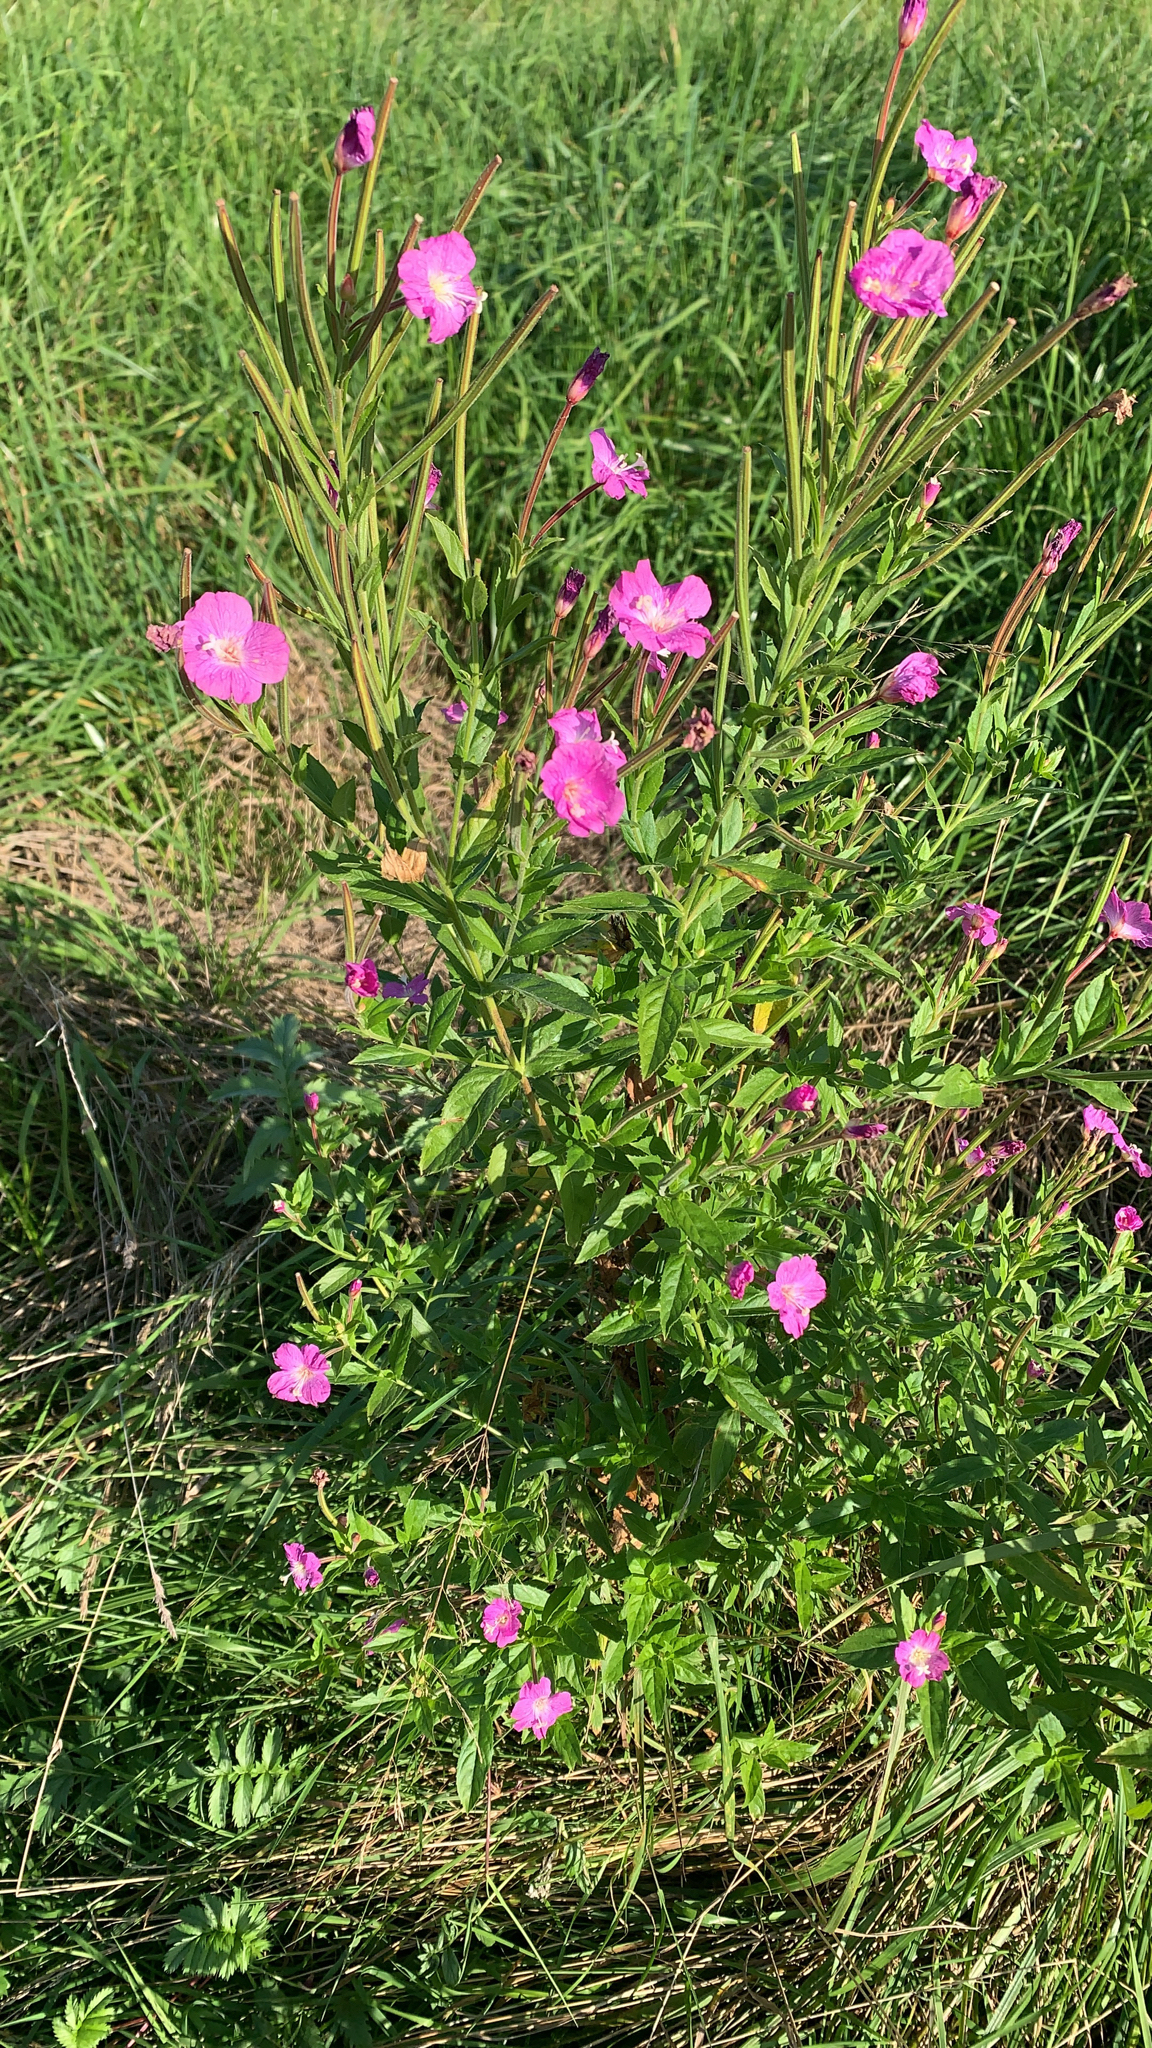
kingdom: Plantae
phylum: Tracheophyta
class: Magnoliopsida
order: Myrtales
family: Onagraceae
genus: Epilobium
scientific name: Epilobium hirsutum
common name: Great willowherb
